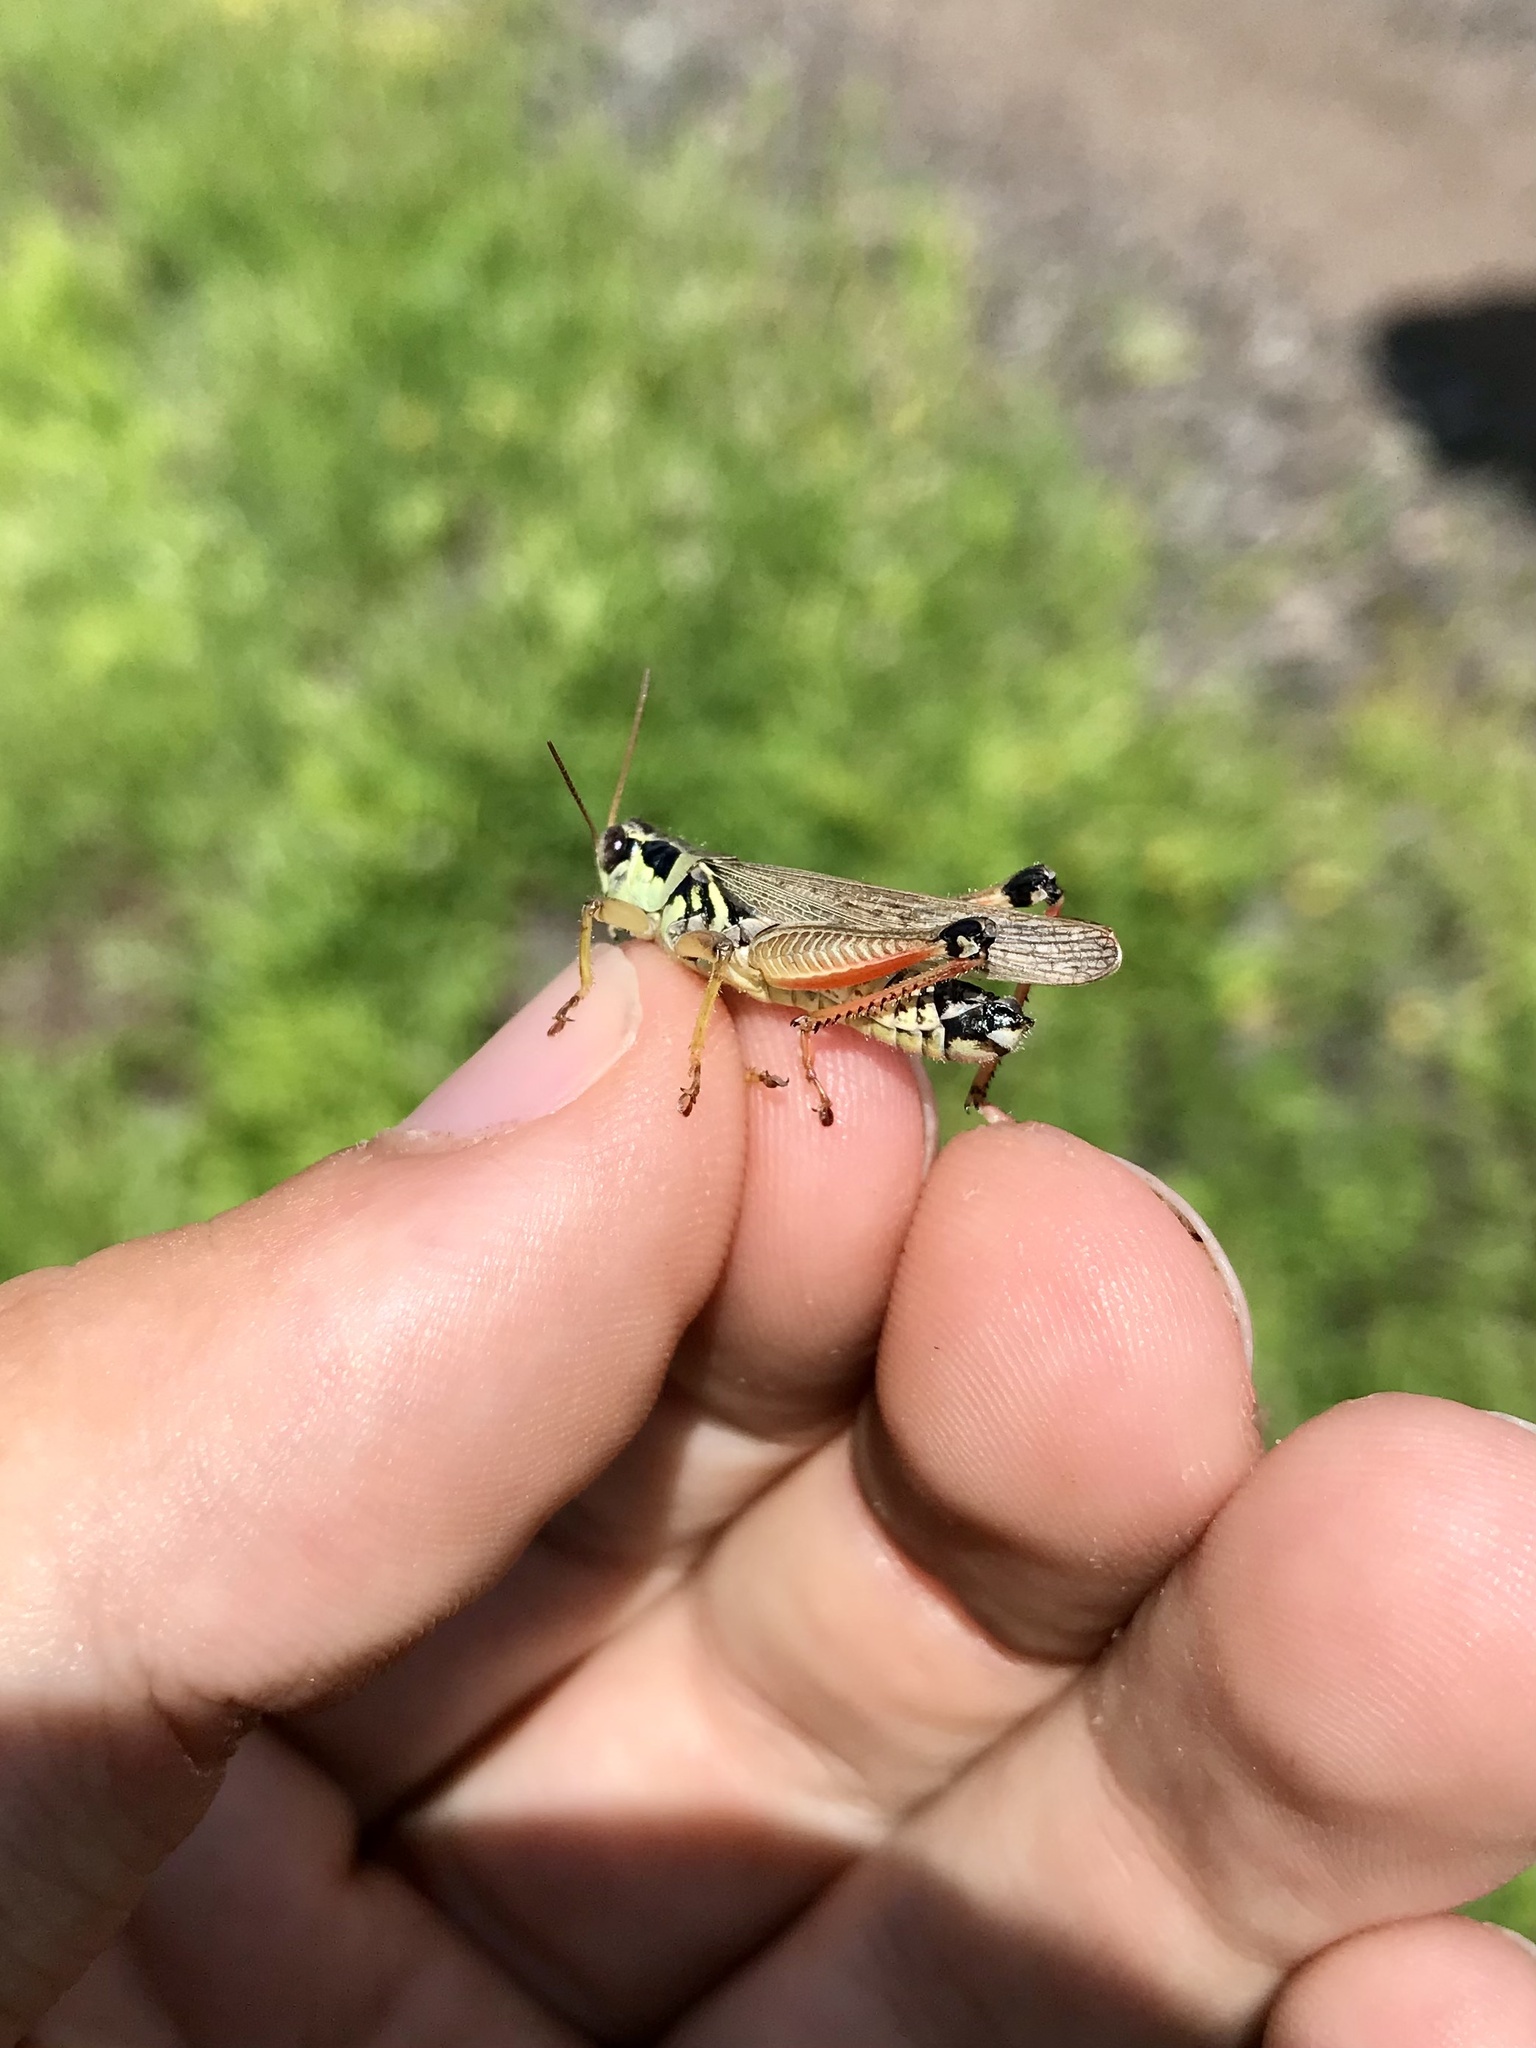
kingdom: Animalia
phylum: Arthropoda
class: Insecta
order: Orthoptera
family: Acrididae
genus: Melanoplus
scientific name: Melanoplus borealis
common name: Northern grasshopper
